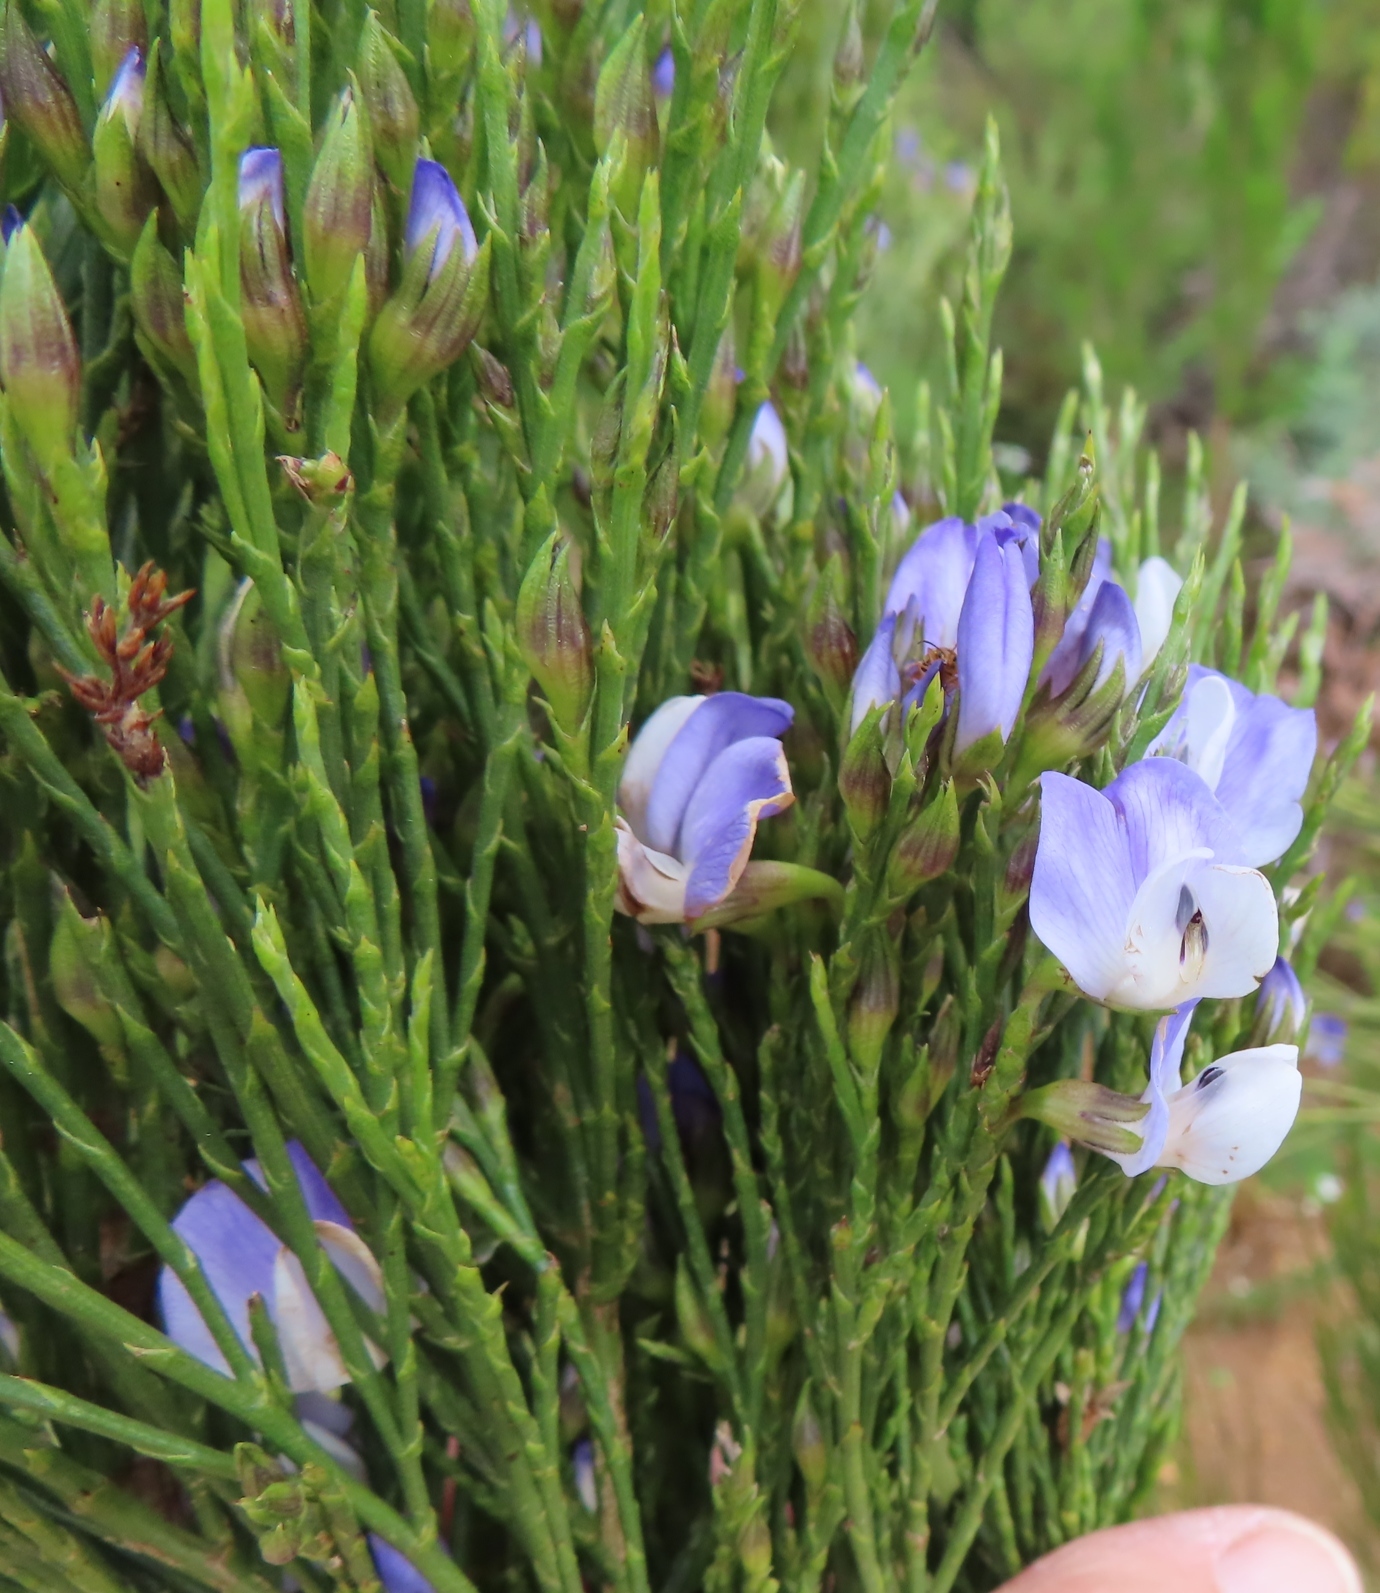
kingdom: Plantae
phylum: Tracheophyta
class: Magnoliopsida
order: Fabales
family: Fabaceae
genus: Psoralea
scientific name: Psoralea aphylla
